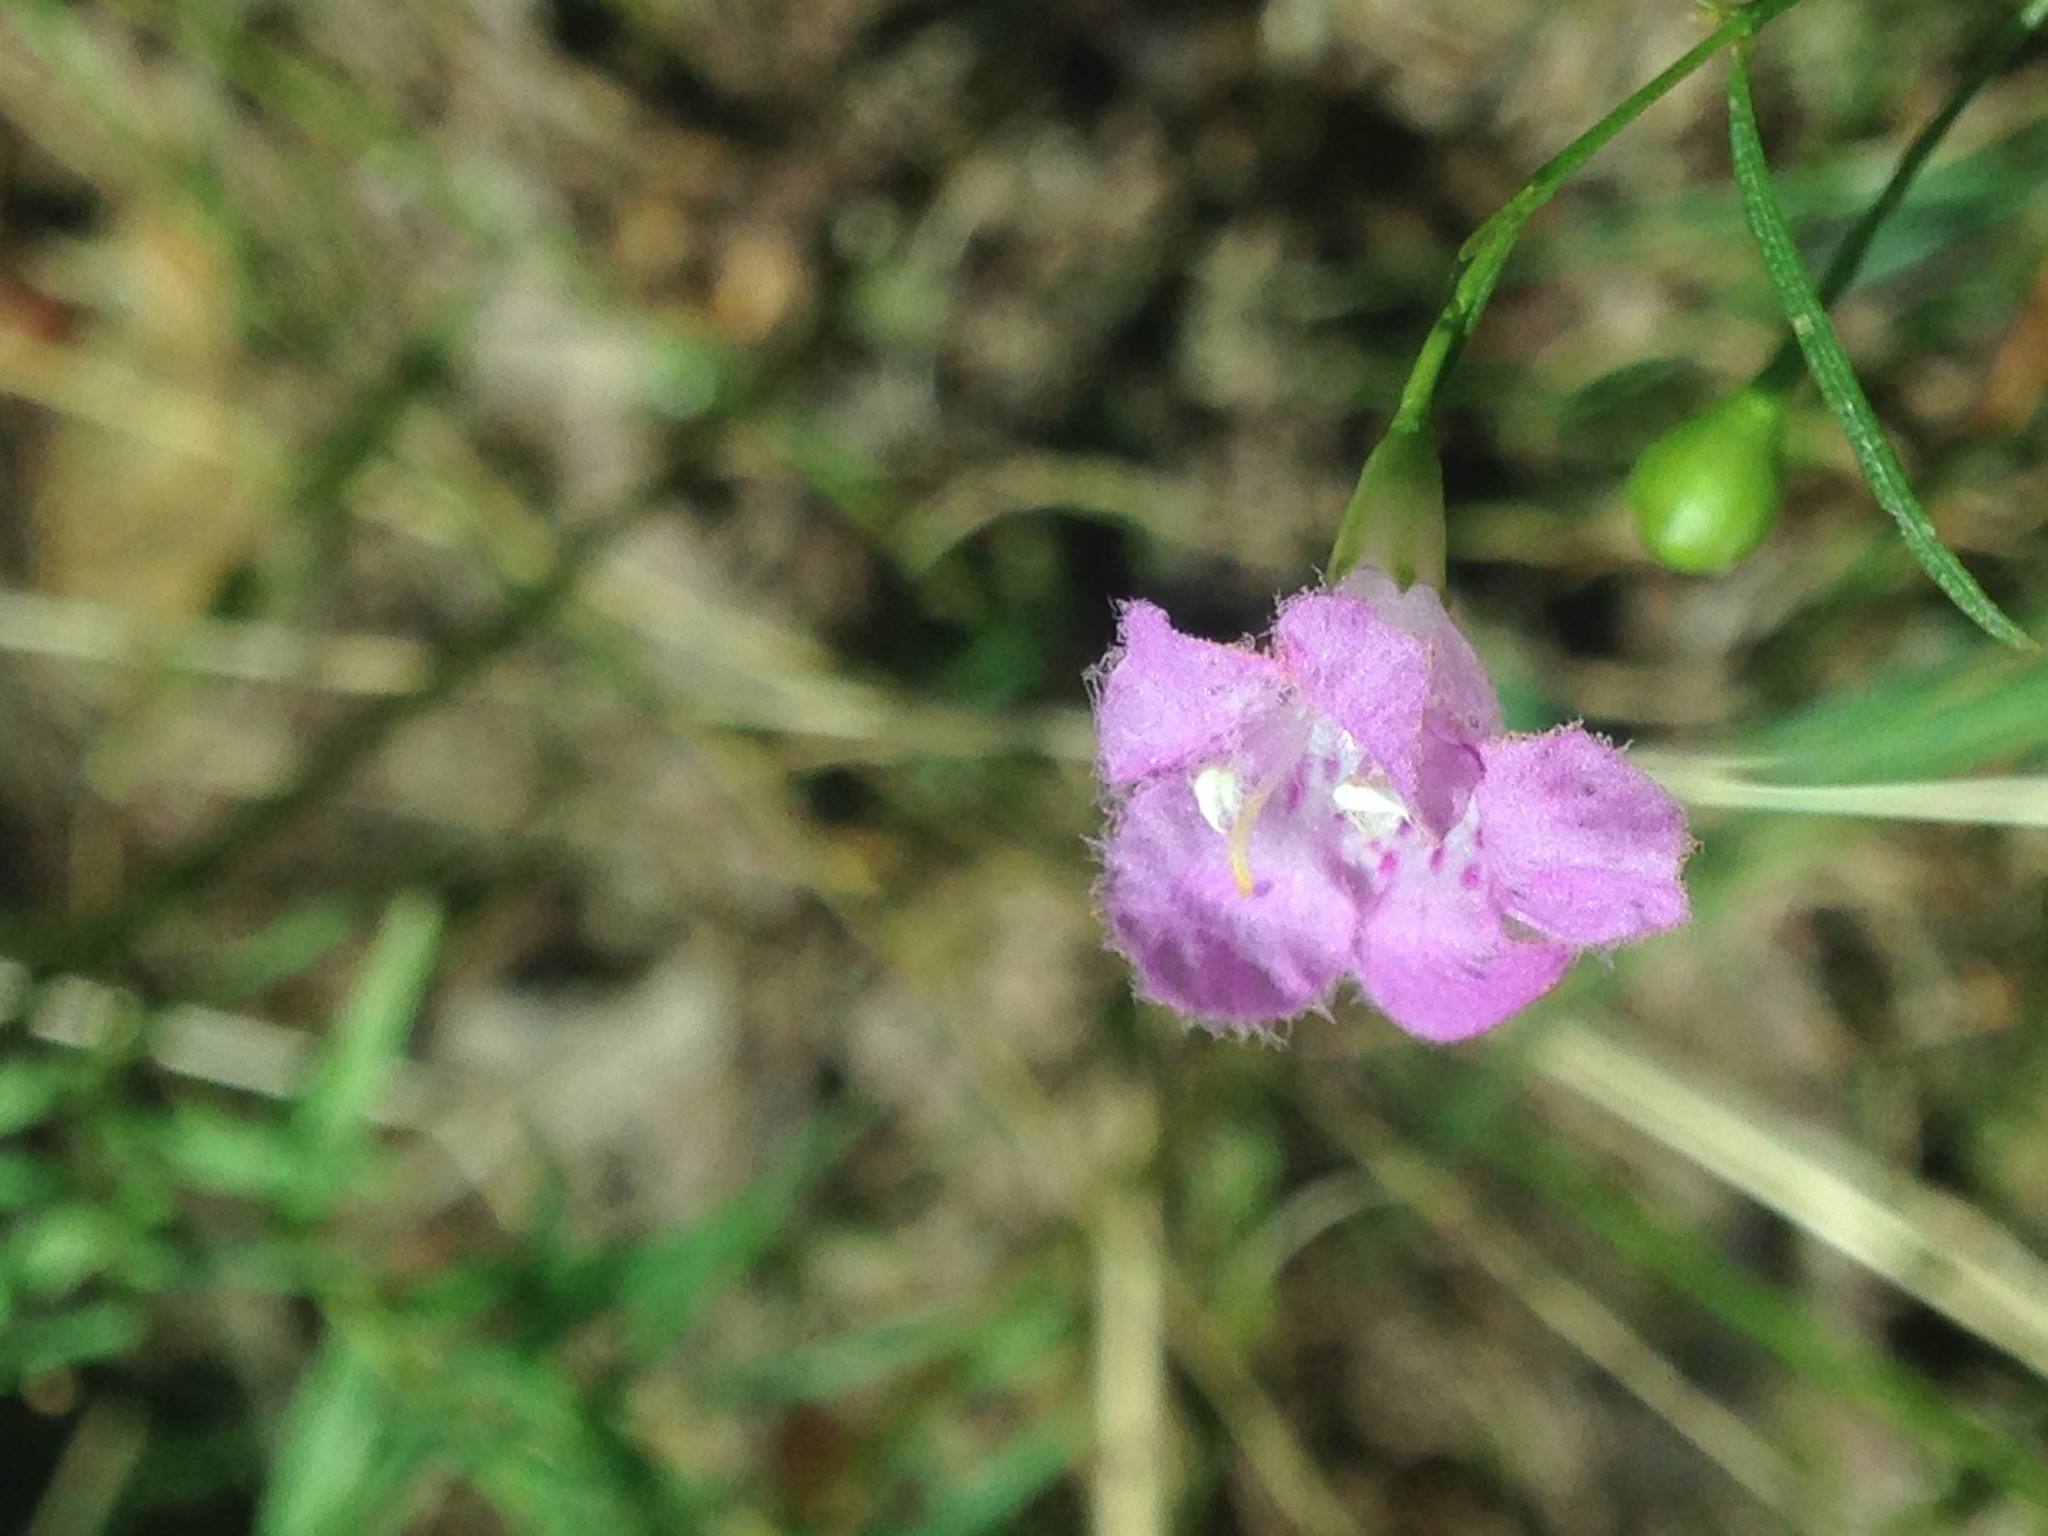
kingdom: Plantae
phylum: Tracheophyta
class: Magnoliopsida
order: Lamiales
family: Orobanchaceae
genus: Agalinis
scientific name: Agalinis gattingeri
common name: Gattinger's agalinis
